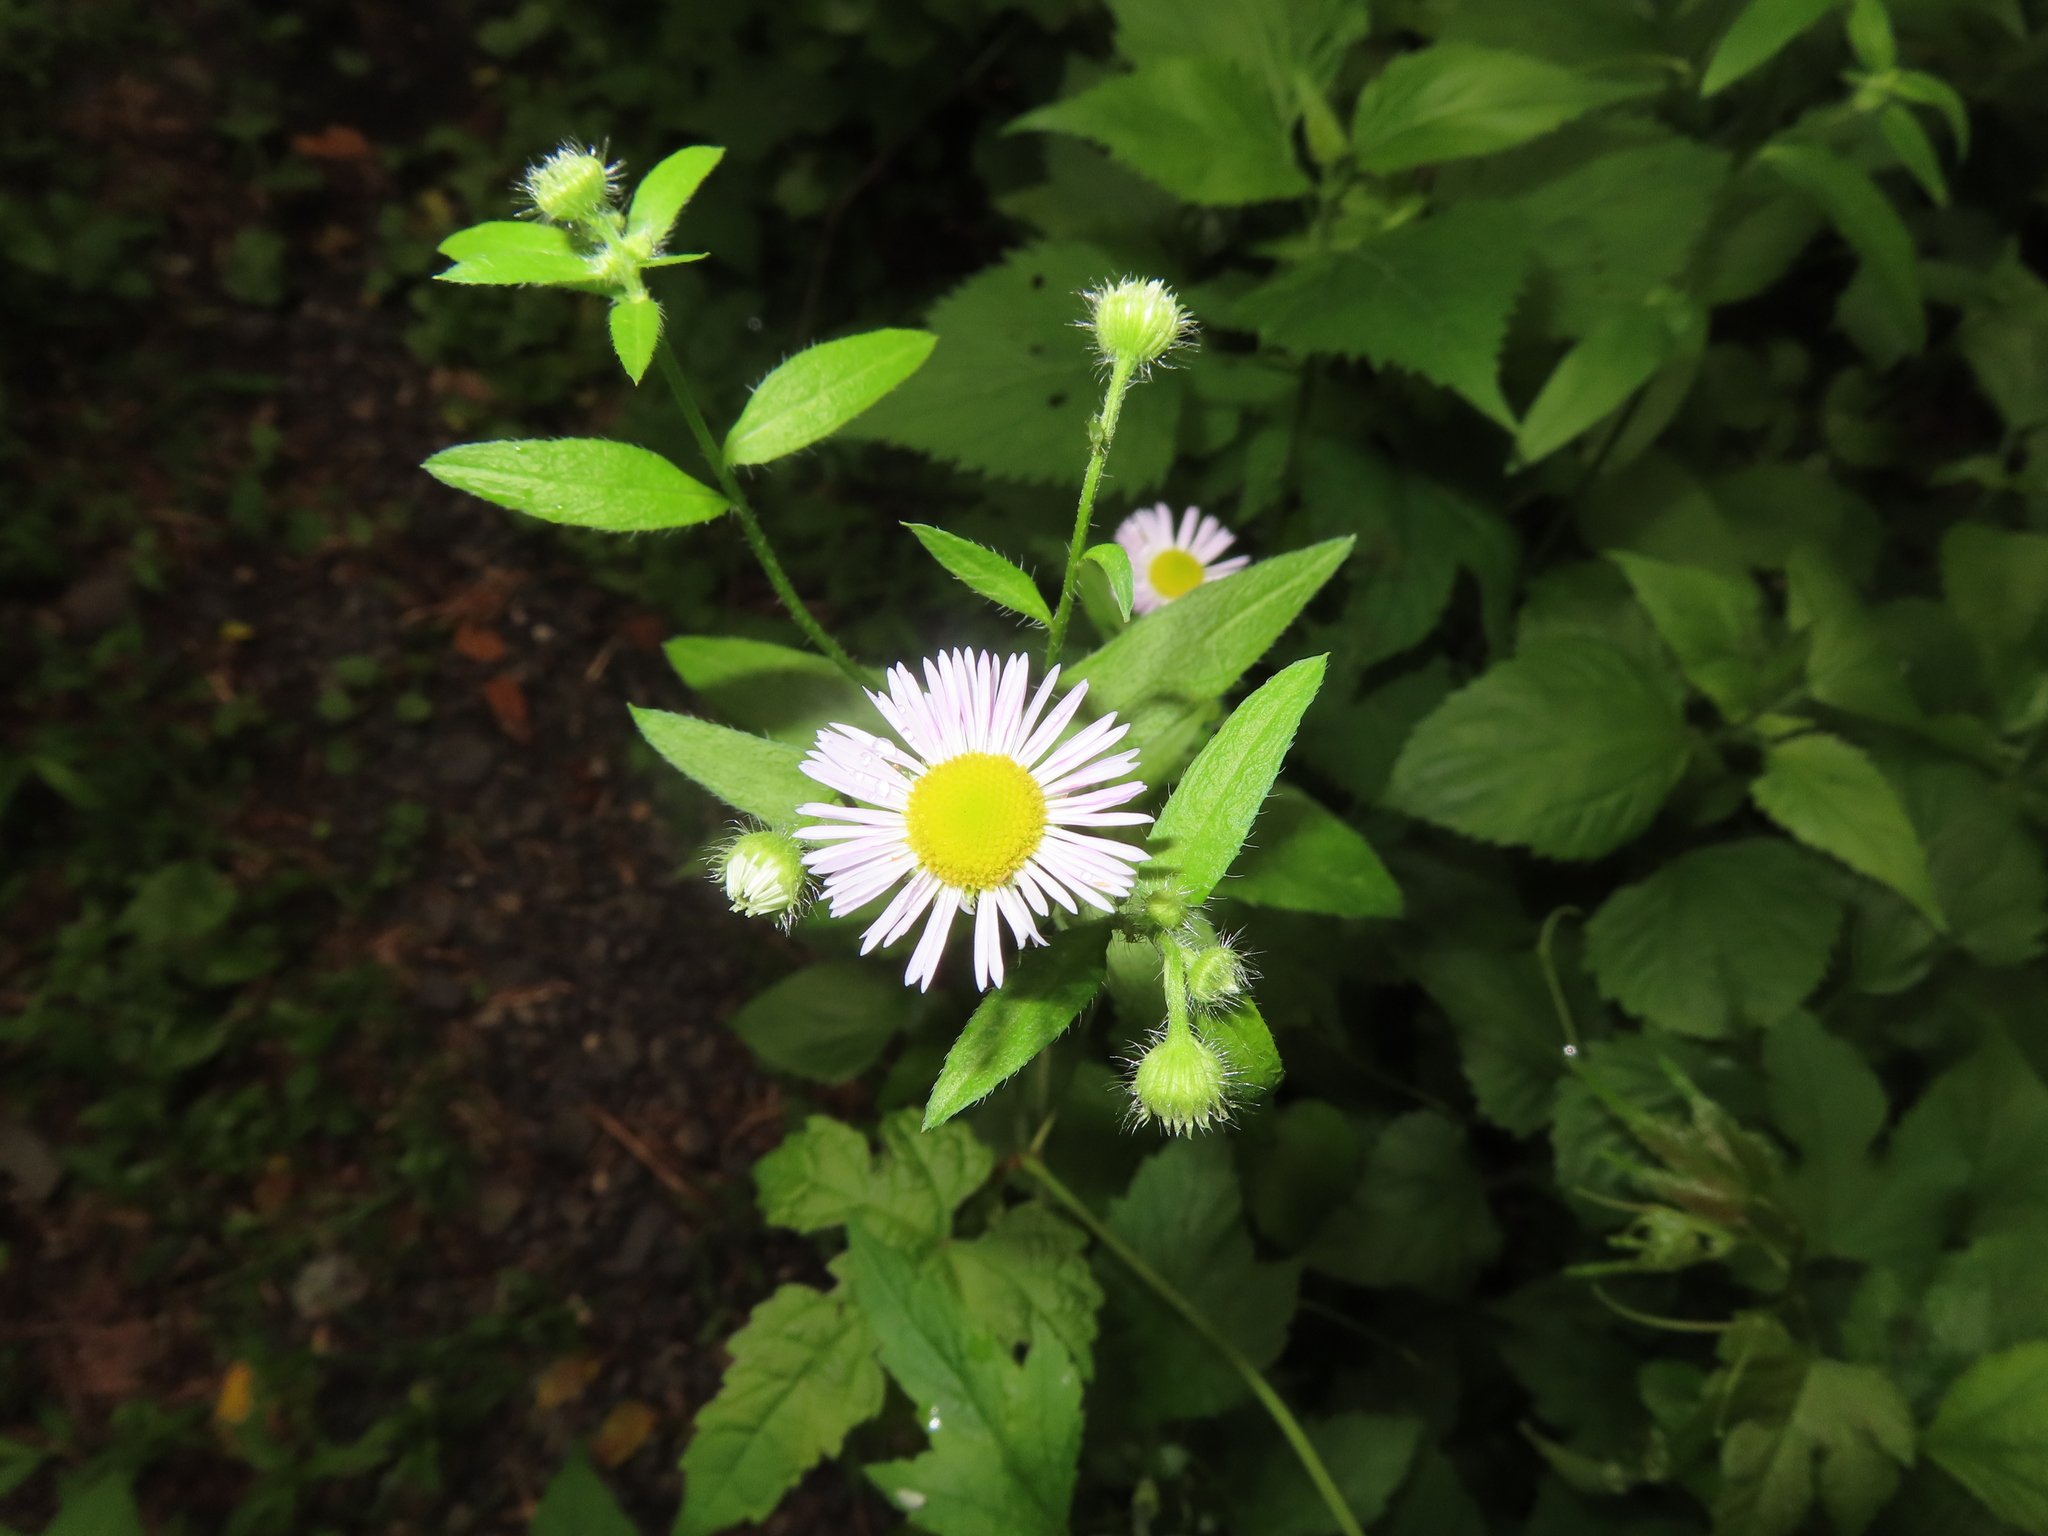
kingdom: Plantae
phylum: Tracheophyta
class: Magnoliopsida
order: Asterales
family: Asteraceae
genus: Erigeron
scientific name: Erigeron annuus
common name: Tall fleabane
